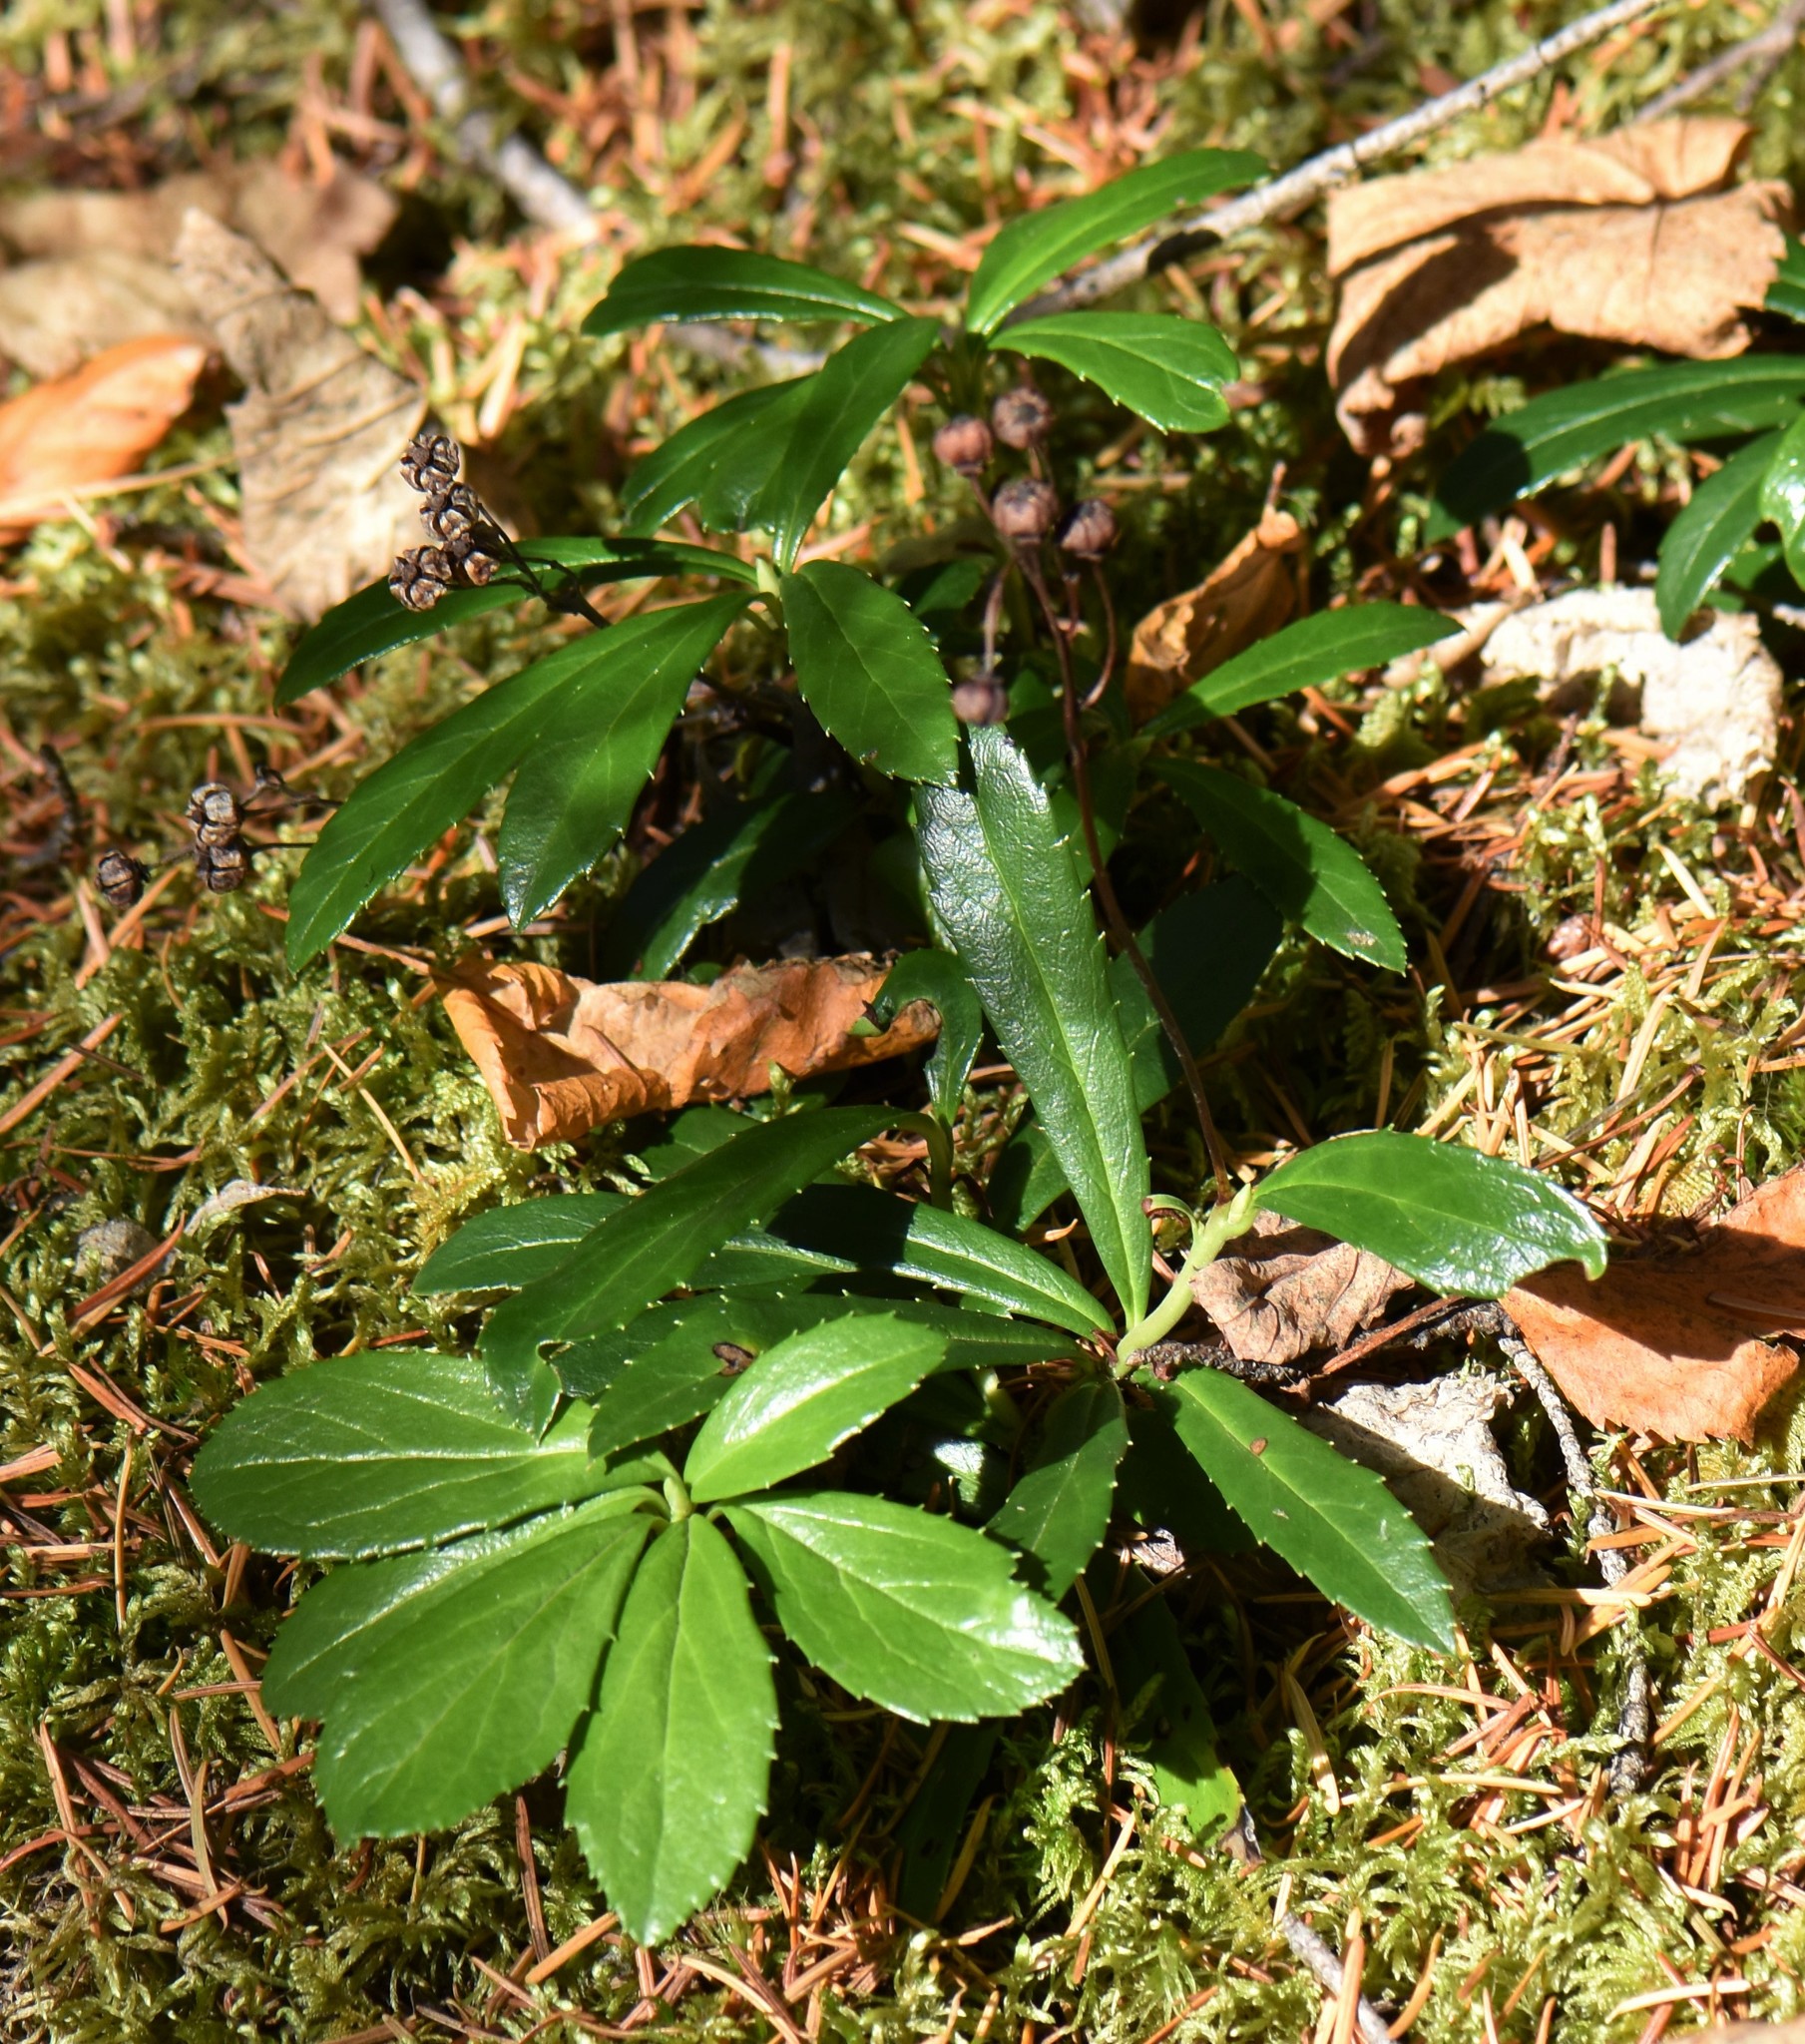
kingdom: Plantae
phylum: Tracheophyta
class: Magnoliopsida
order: Ericales
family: Ericaceae
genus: Chimaphila
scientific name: Chimaphila umbellata
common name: Pipsissewa
